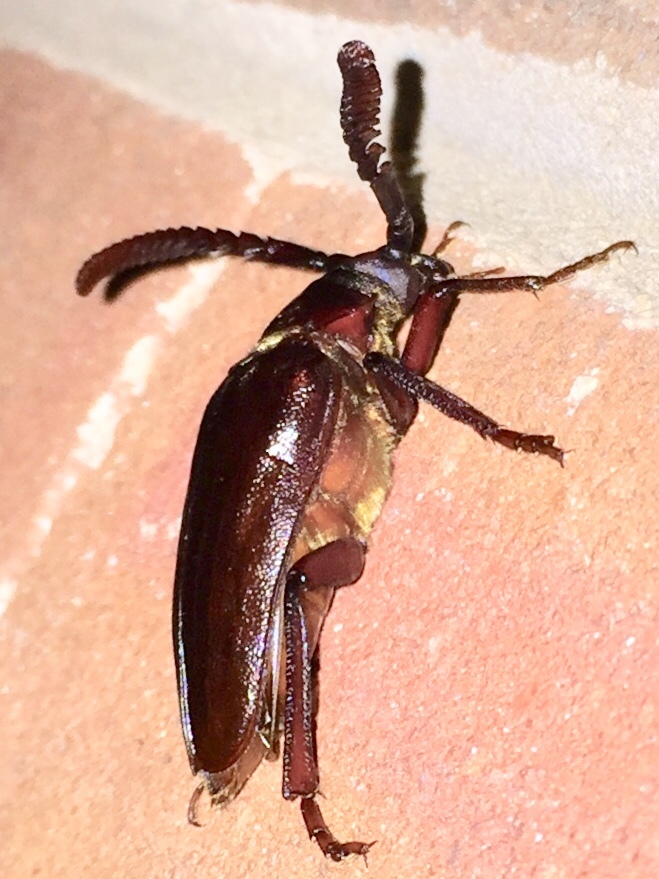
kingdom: Animalia
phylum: Arthropoda
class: Insecta
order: Coleoptera
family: Cerambycidae
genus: Prionus
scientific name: Prionus imbricornis
